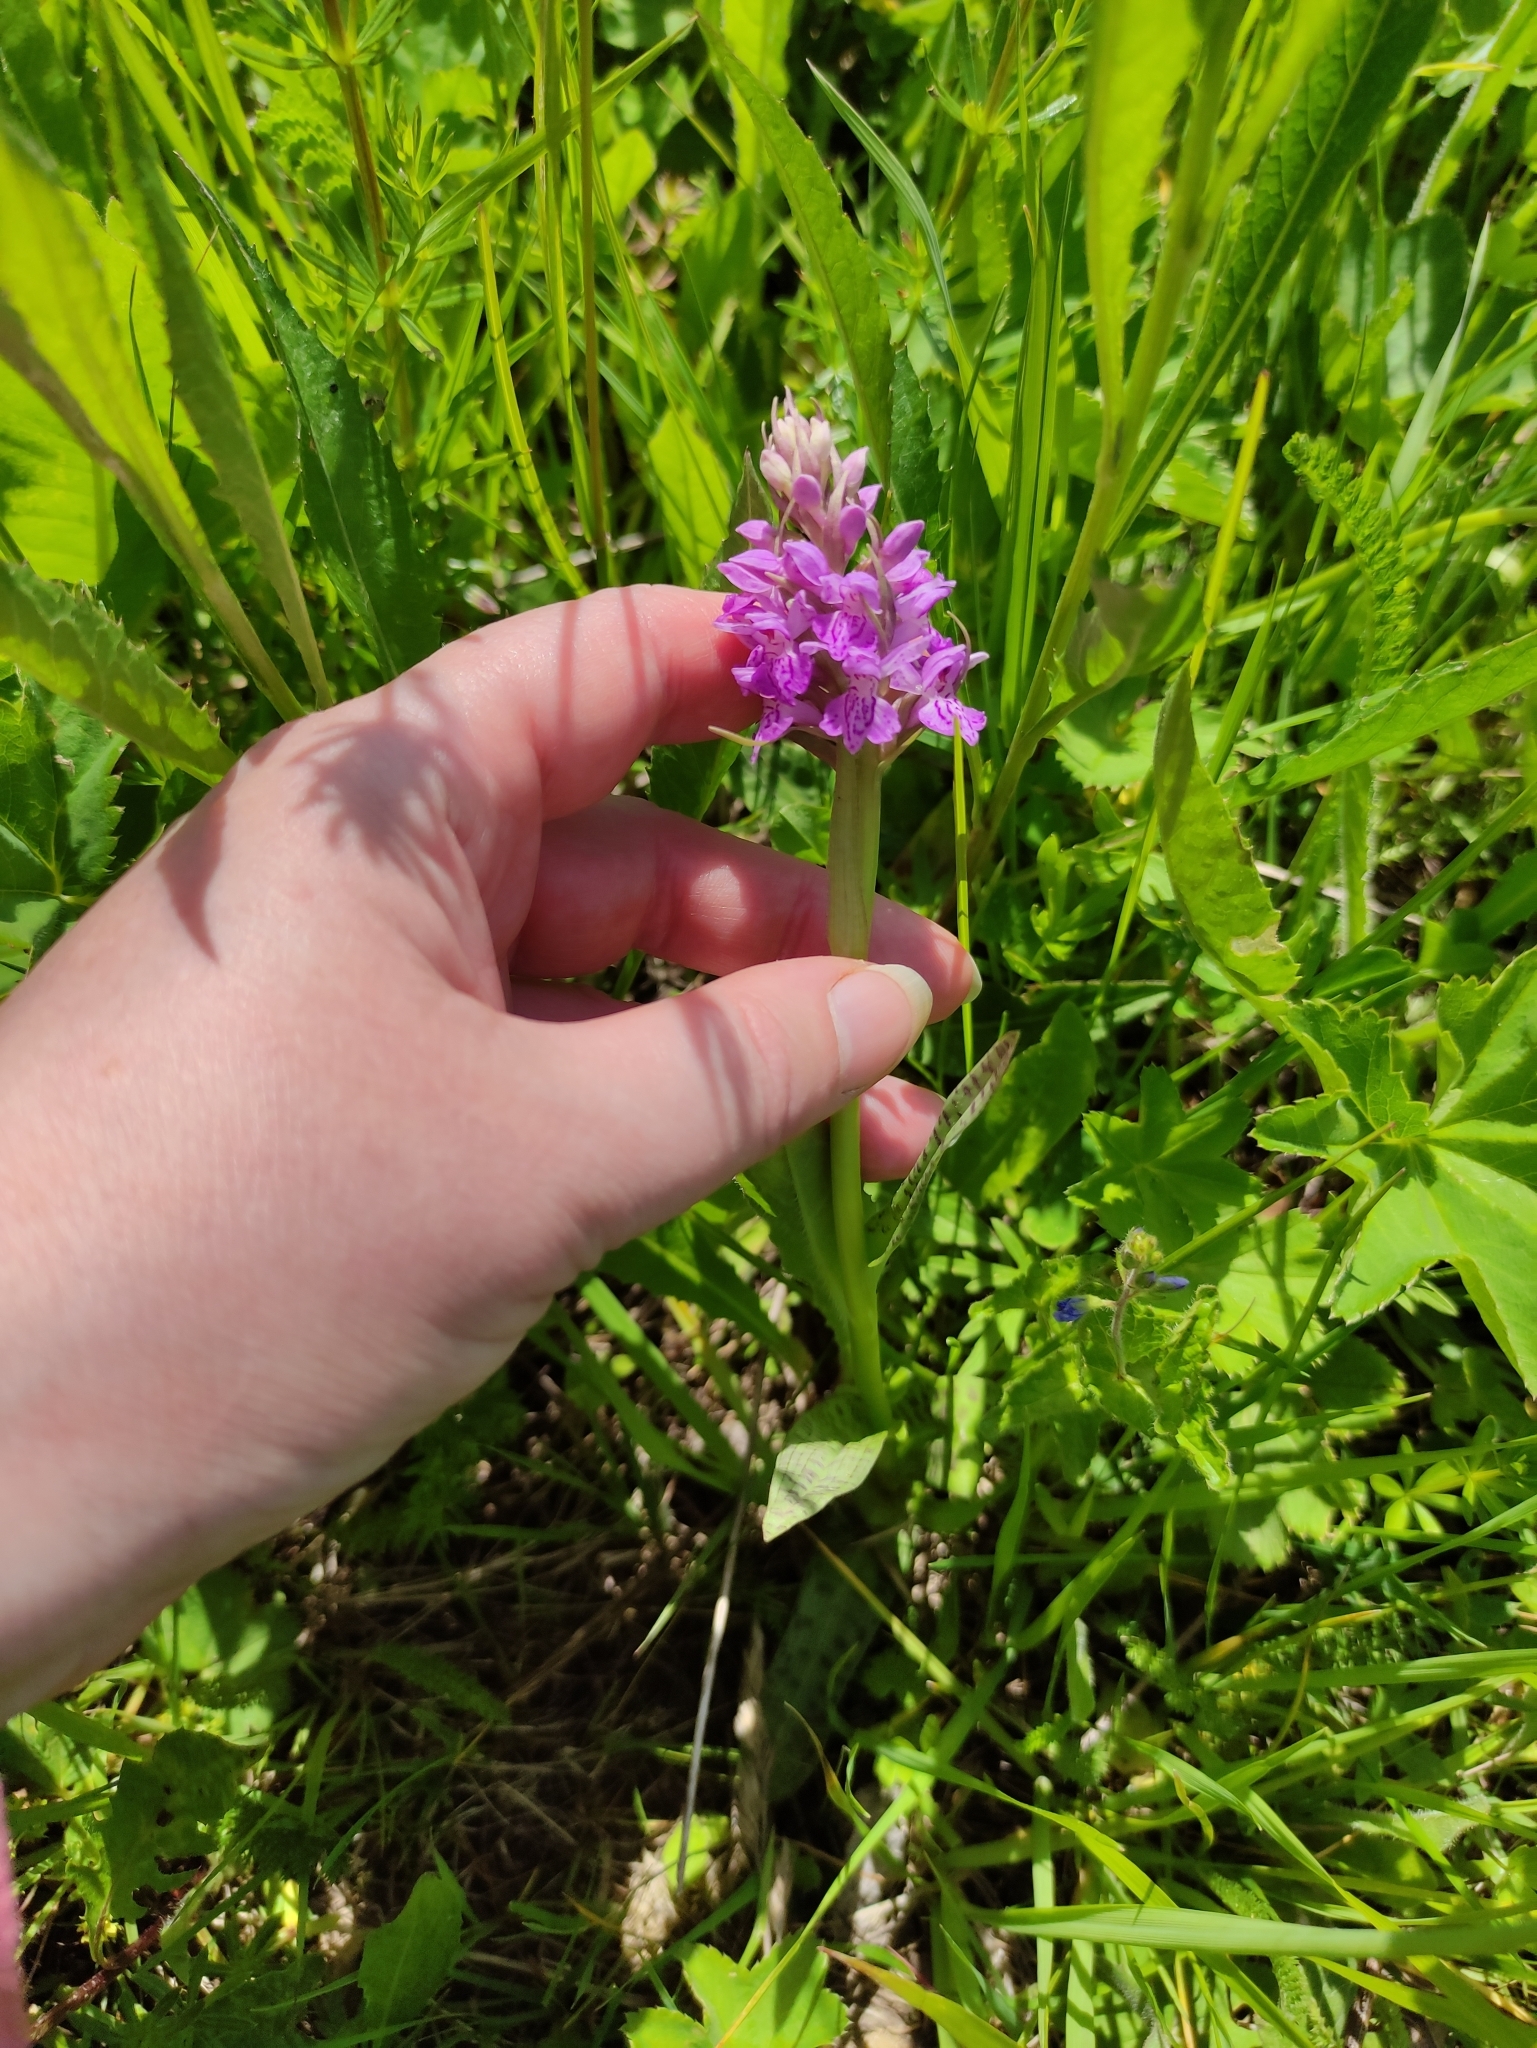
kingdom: Plantae
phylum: Tracheophyta
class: Liliopsida
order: Asparagales
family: Orchidaceae
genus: Dactylorhiza
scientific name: Dactylorhiza majalis
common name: Marsh orchid
